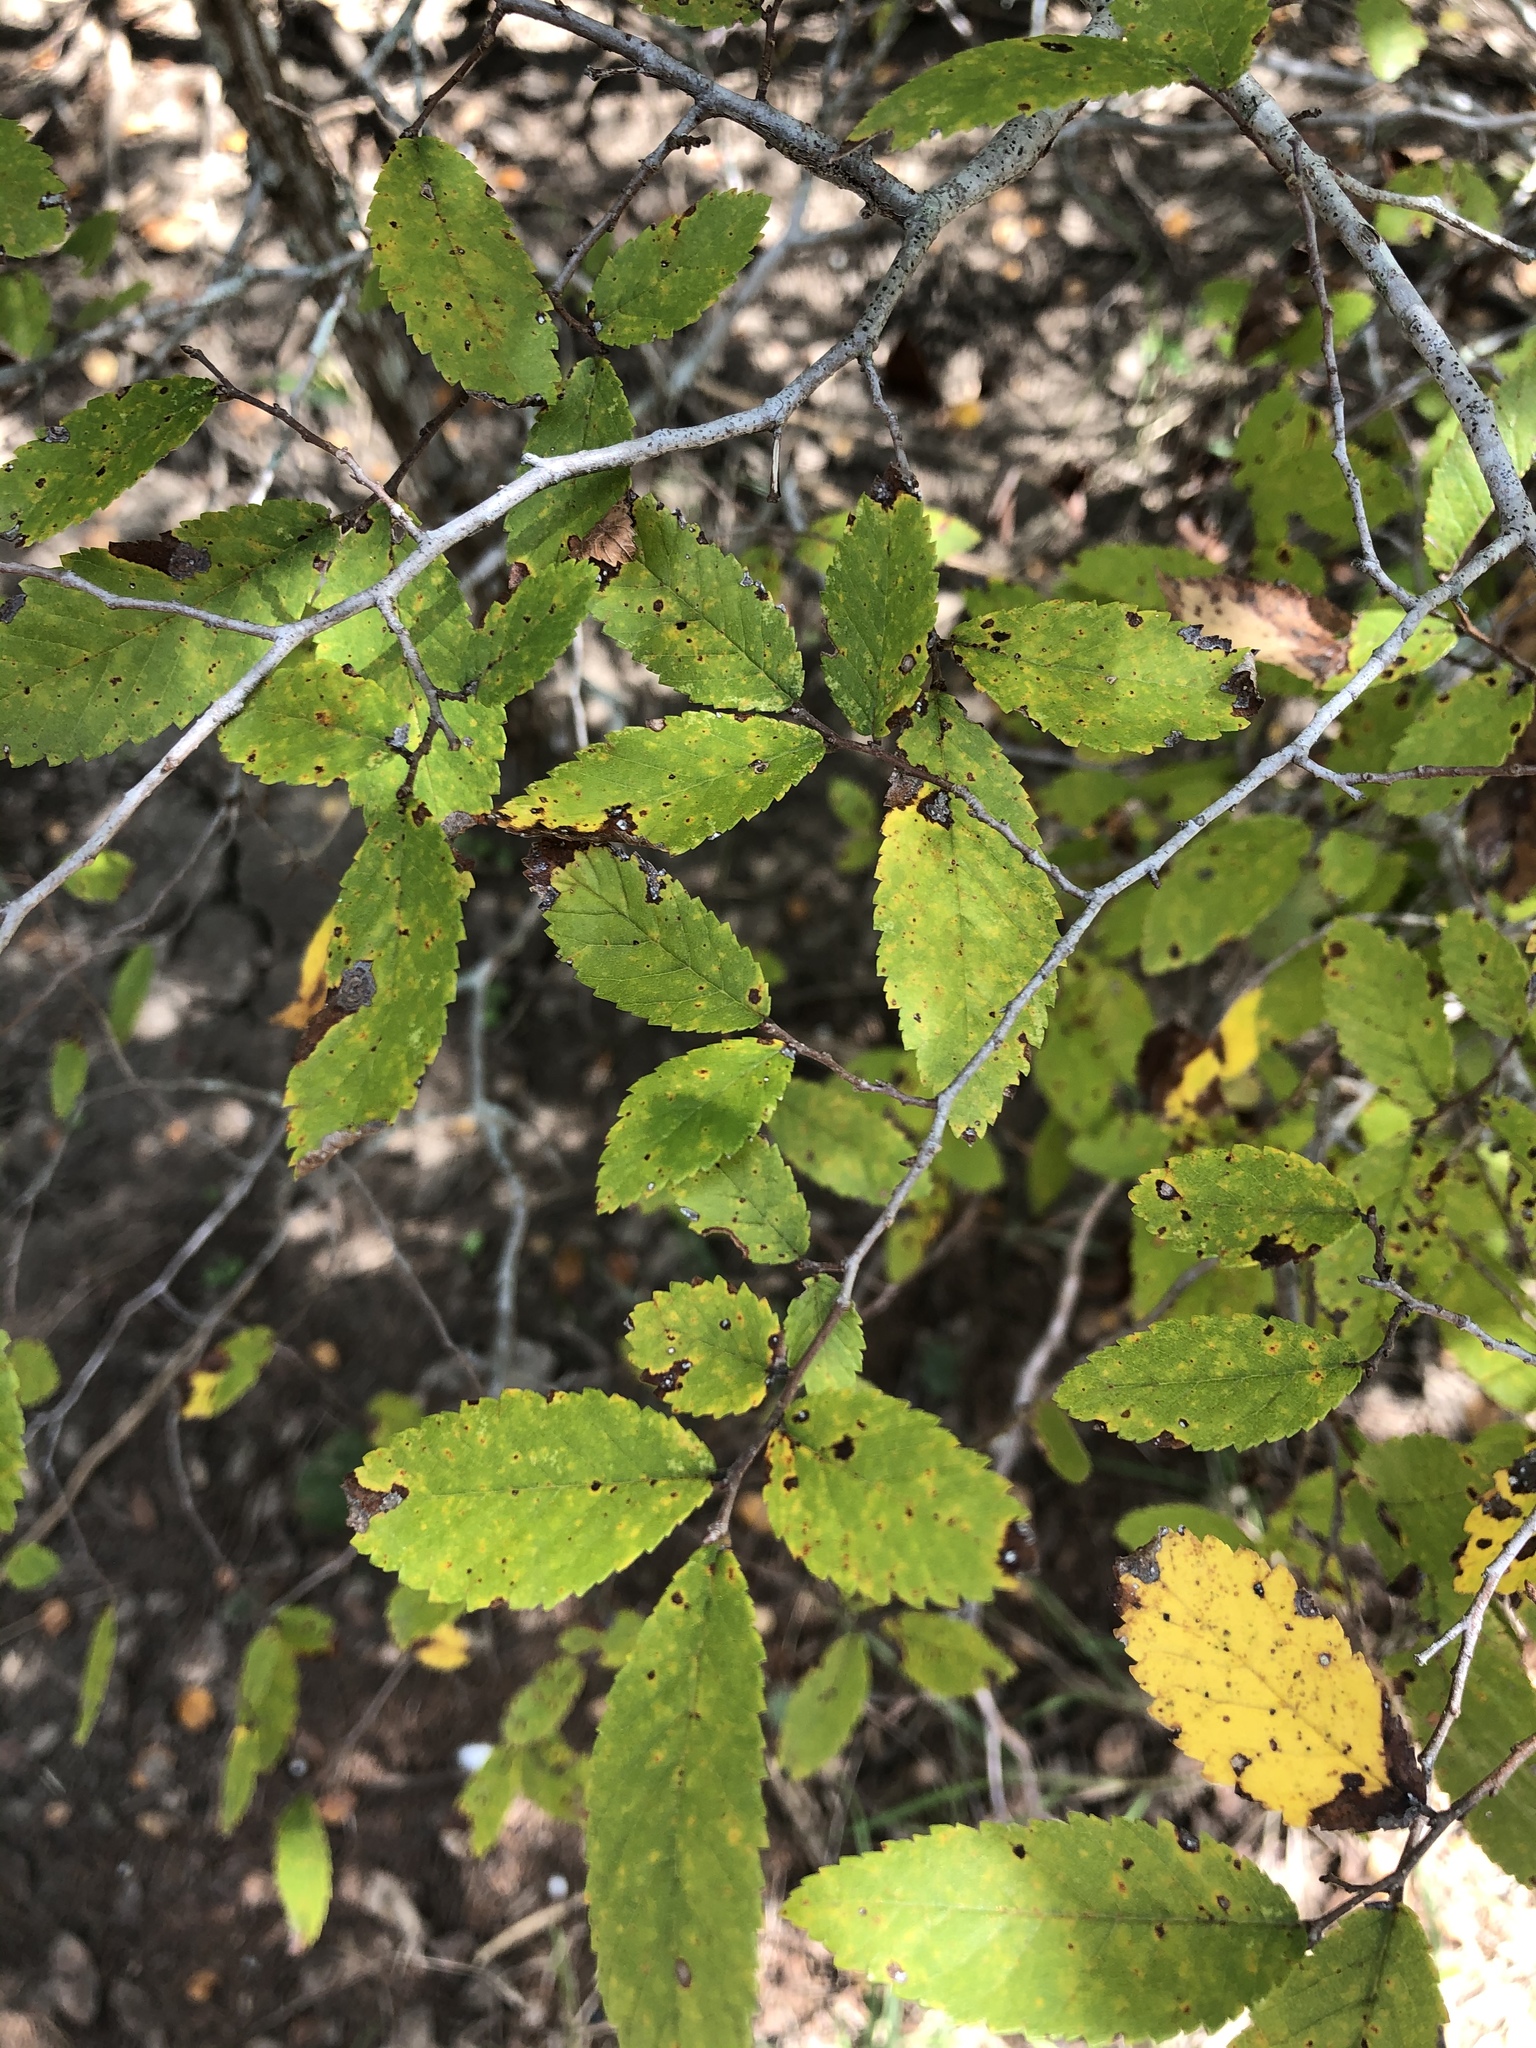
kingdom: Plantae
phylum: Tracheophyta
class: Magnoliopsida
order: Rosales
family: Ulmaceae
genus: Ulmus
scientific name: Ulmus crassifolia
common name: Basket elm
